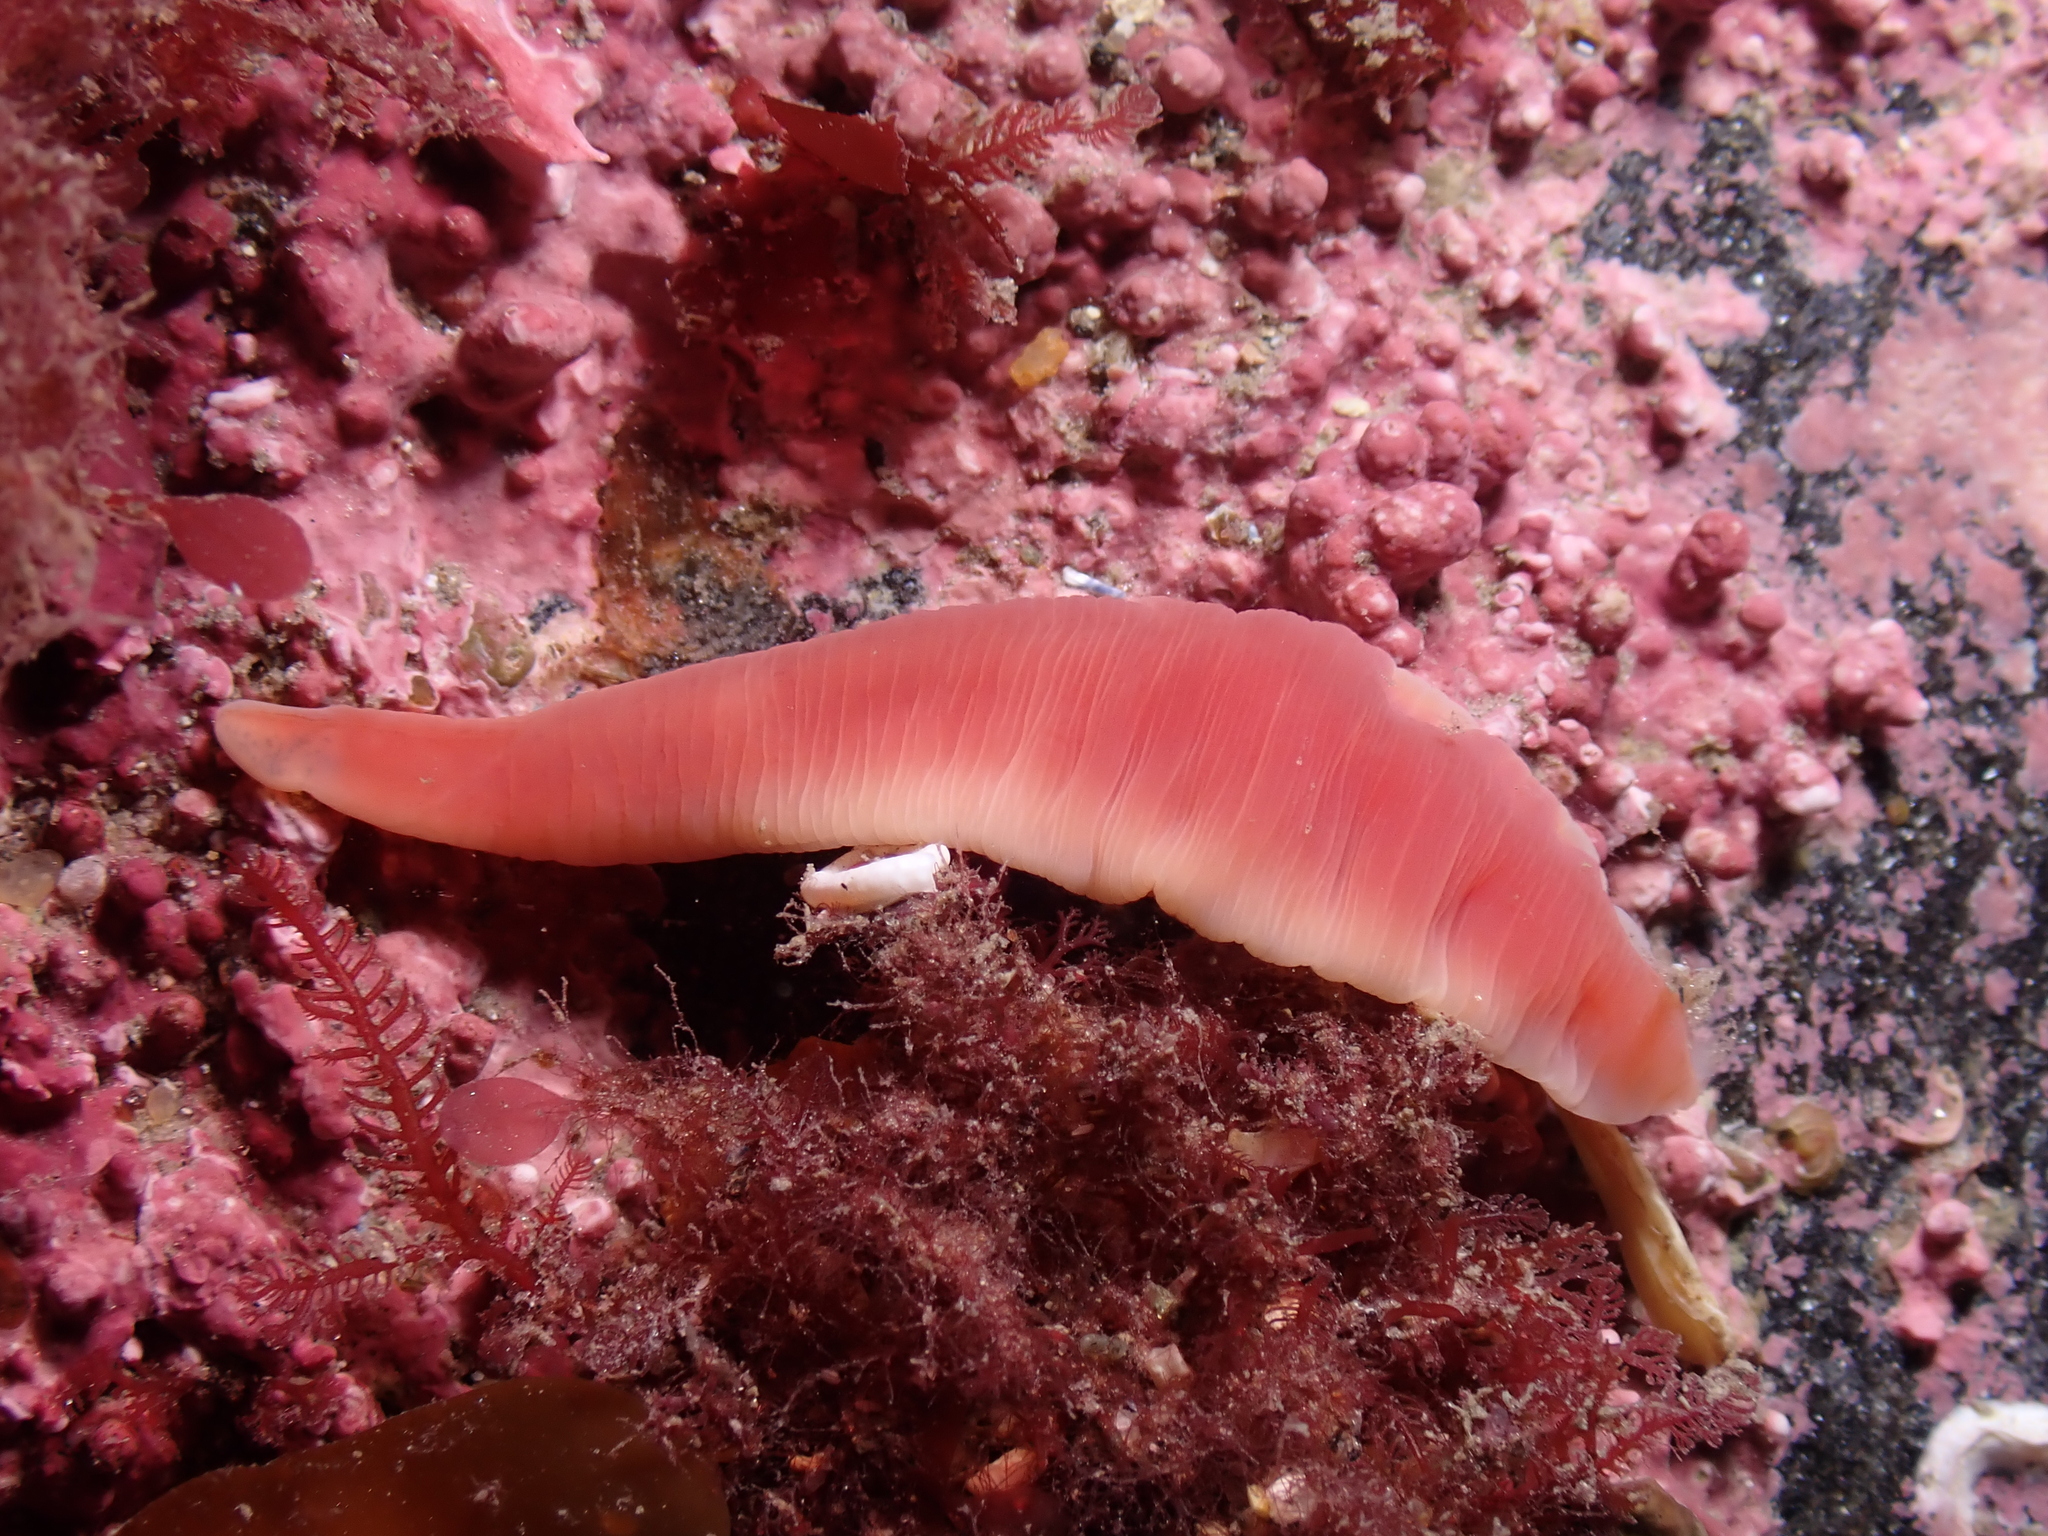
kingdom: Animalia
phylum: Nemertea
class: Hoplonemertea
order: Monostilifera
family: Cratenemertidae
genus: Nipponnemertes
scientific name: Nipponnemertes pulchra
